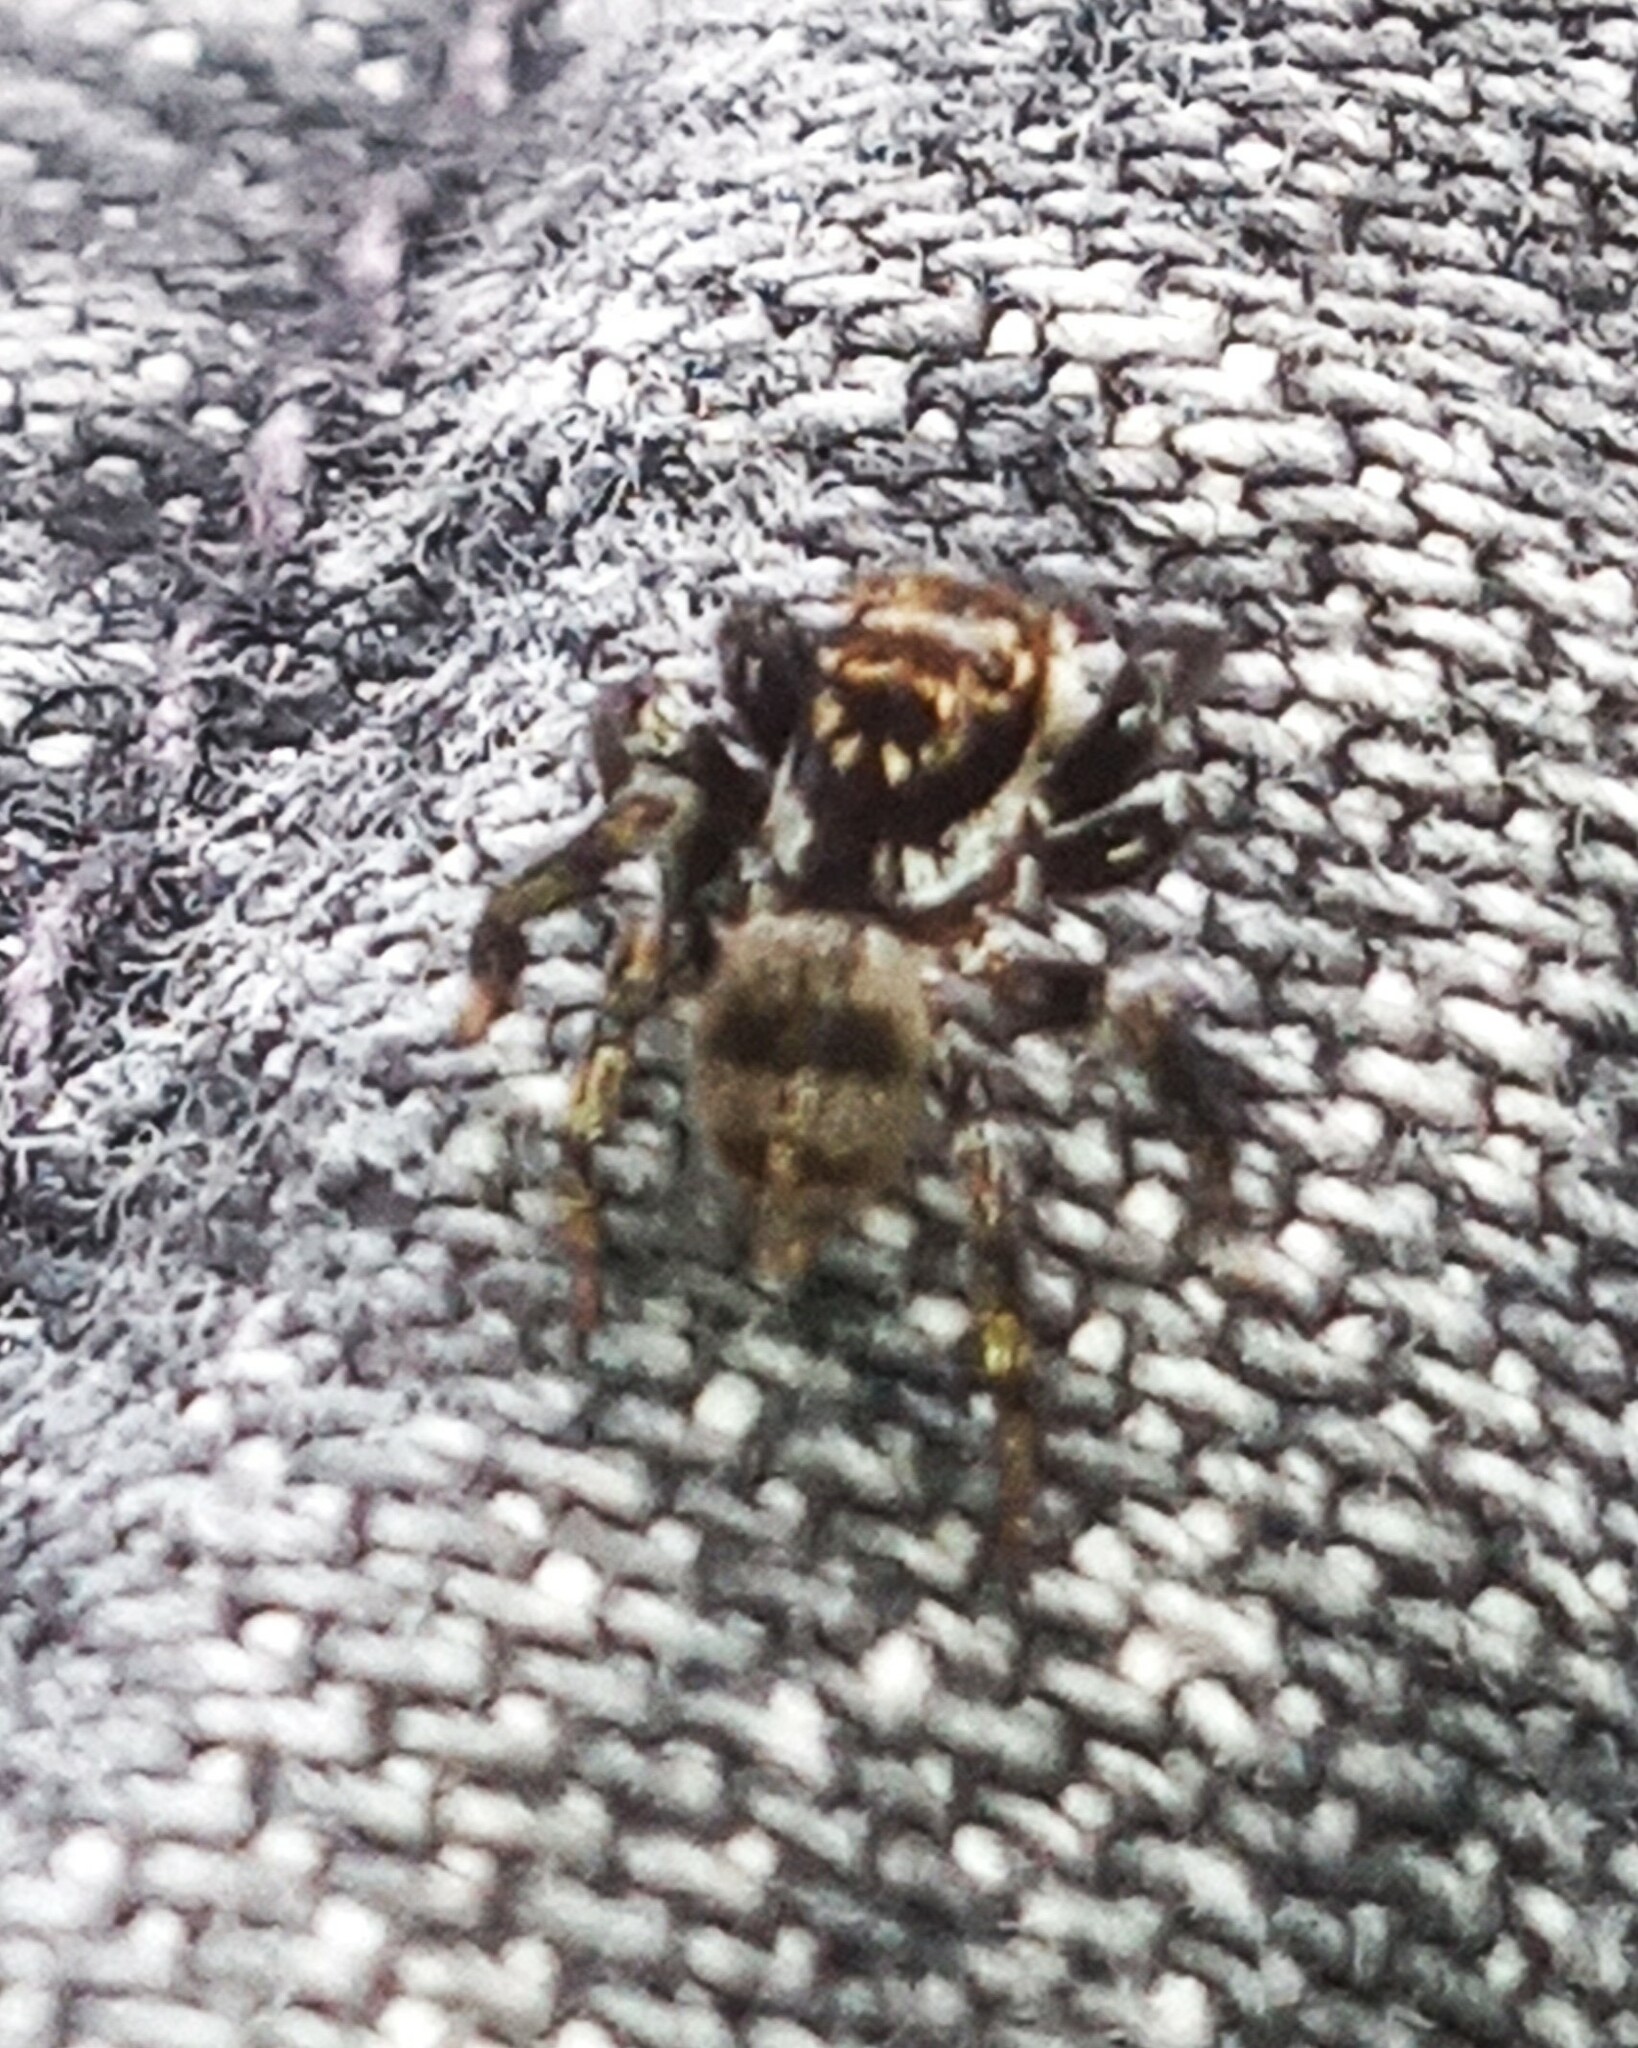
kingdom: Animalia
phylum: Arthropoda
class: Arachnida
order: Araneae
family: Salticidae
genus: Corythalia
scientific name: Corythalia conferta
